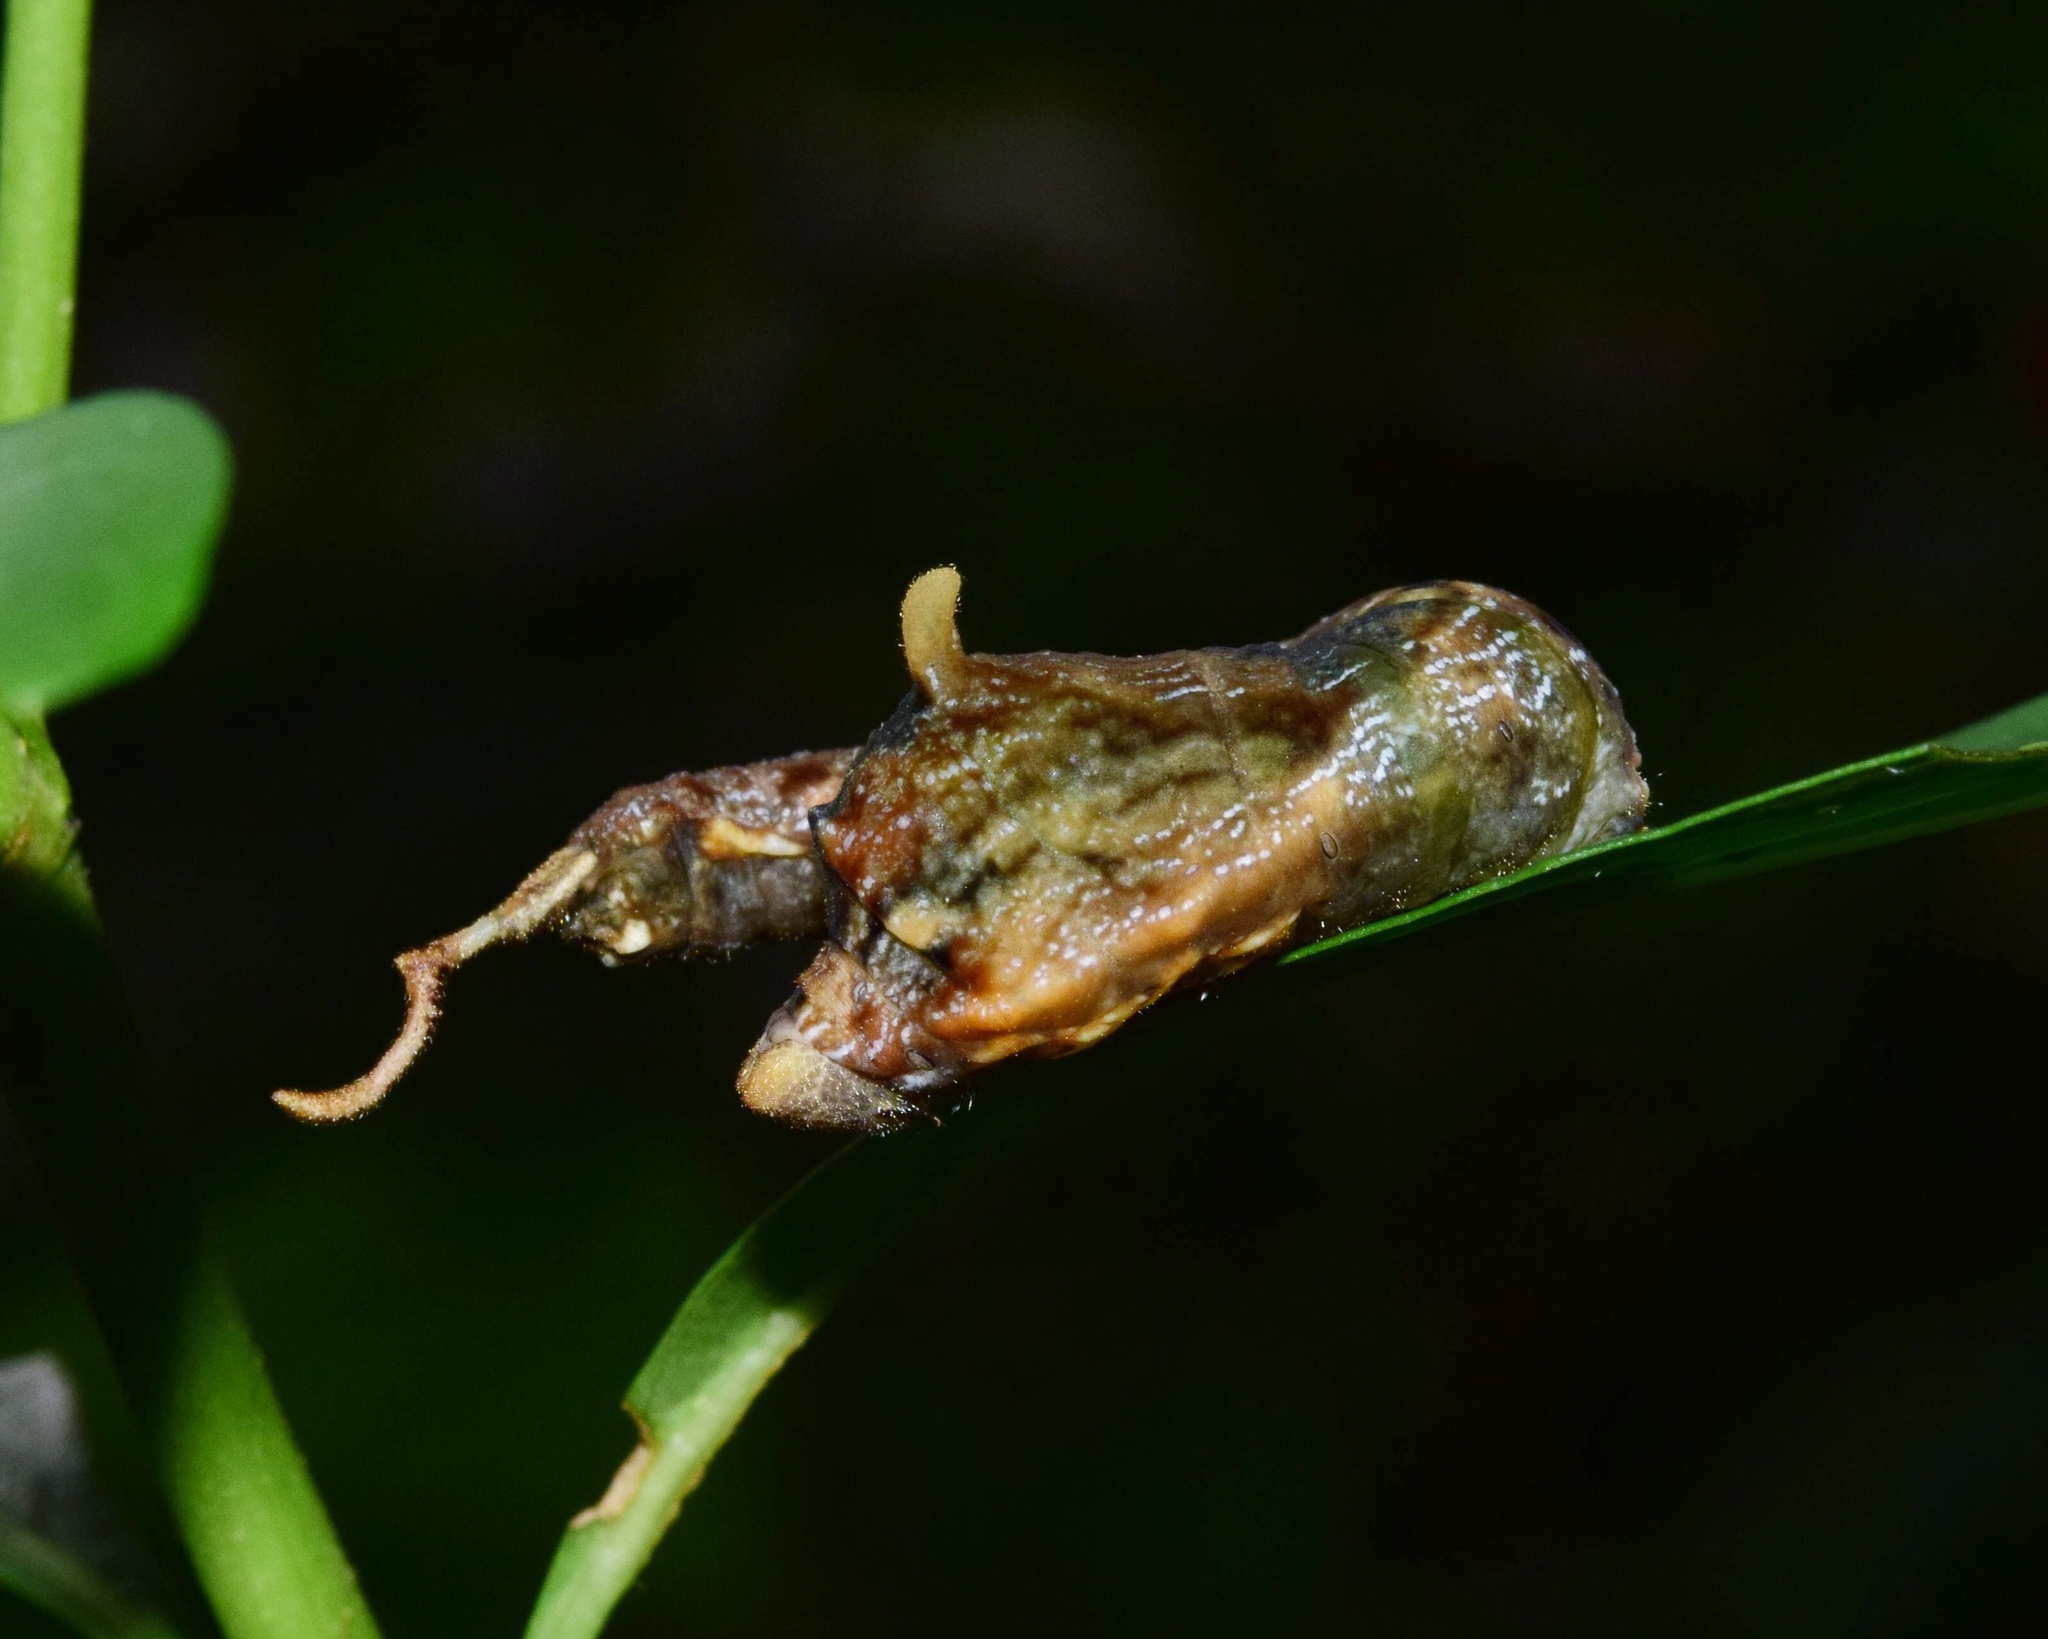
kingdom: Animalia
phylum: Arthropoda
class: Insecta
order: Lepidoptera
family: Drepanidae
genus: Negera
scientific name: Negera natalensis
